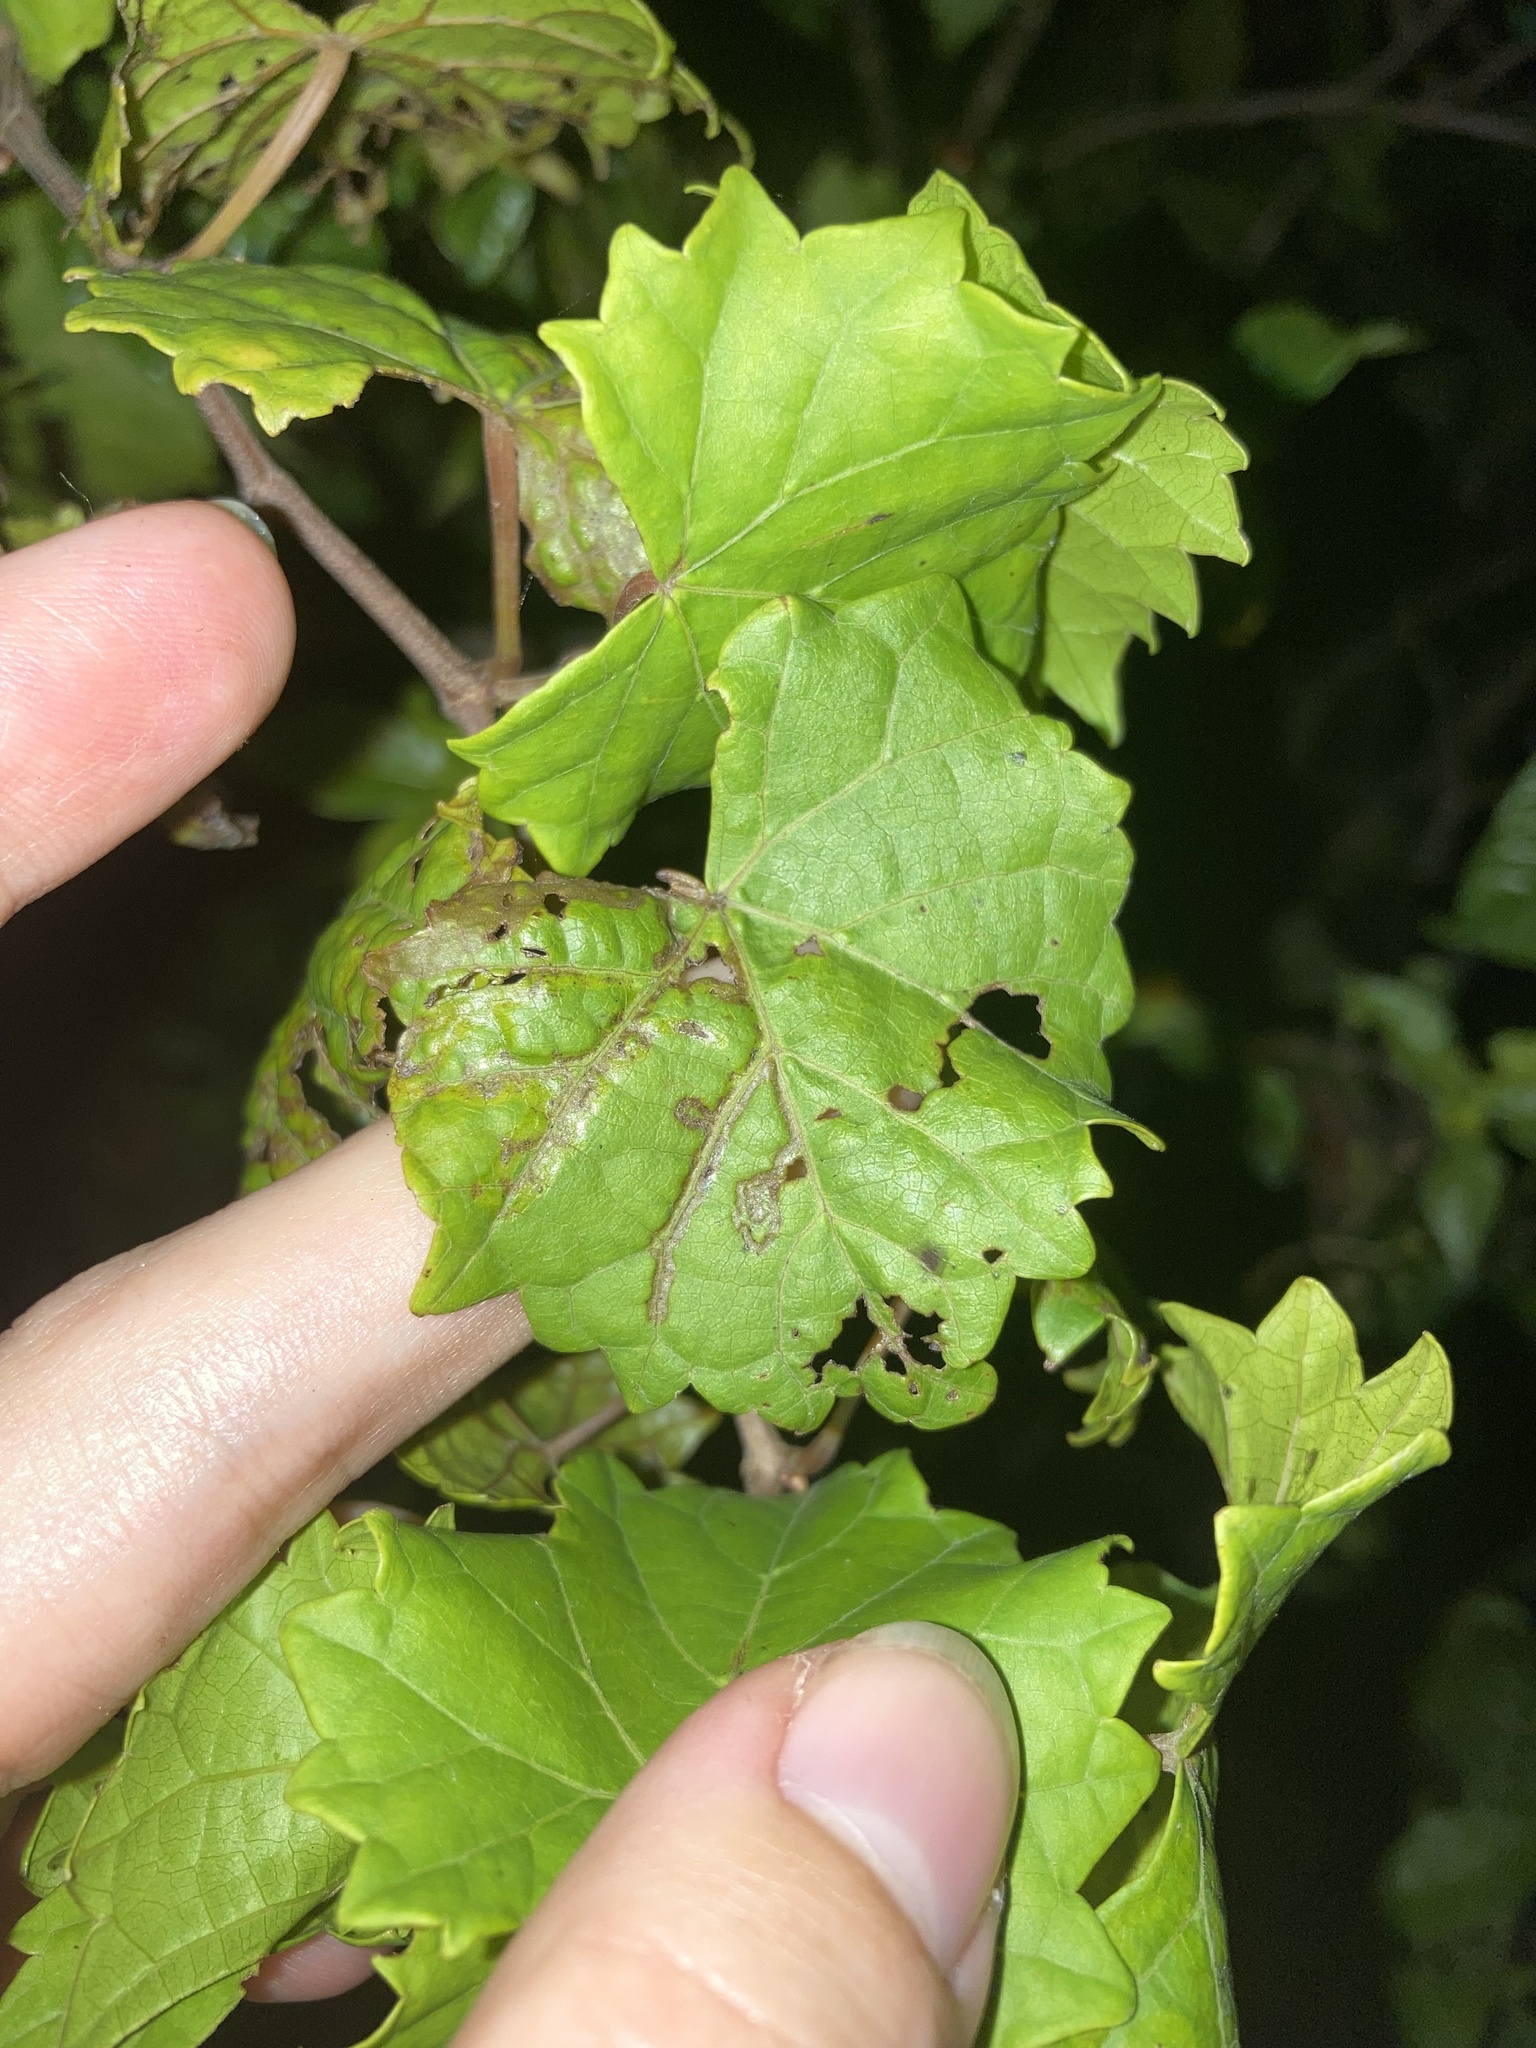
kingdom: Animalia
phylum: Arthropoda
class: Insecta
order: Lepidoptera
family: Gracillariidae
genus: Phyllocnistis
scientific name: Phyllocnistis vitegenella
